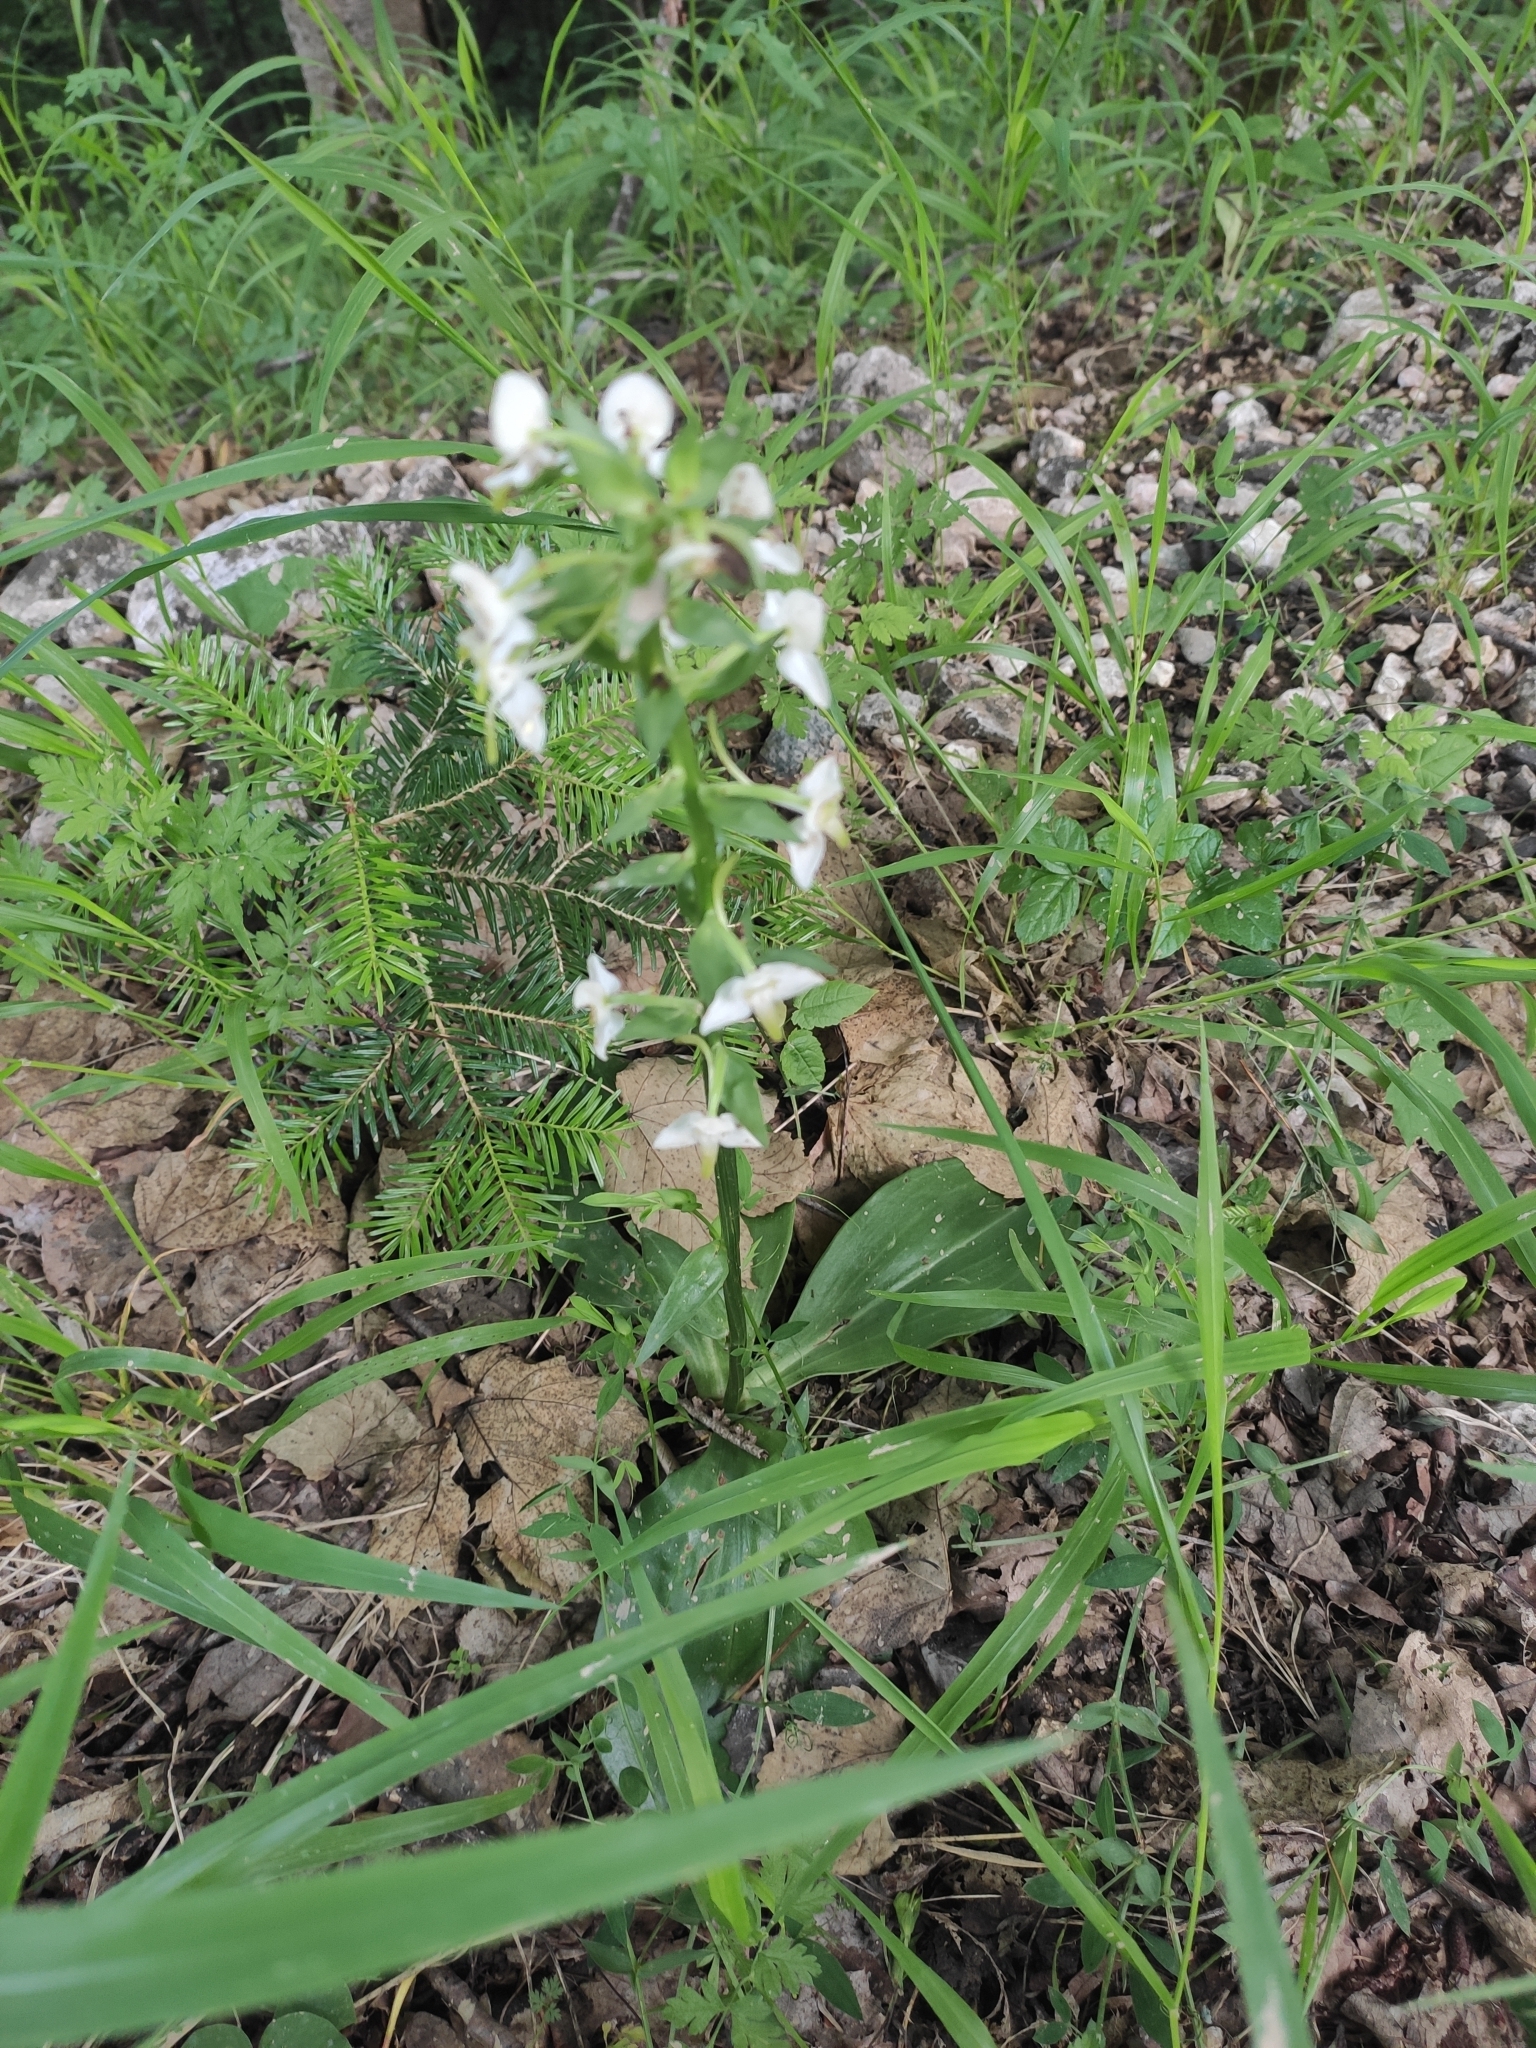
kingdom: Plantae
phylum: Tracheophyta
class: Liliopsida
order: Asparagales
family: Orchidaceae
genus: Platanthera
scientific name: Platanthera chlorantha
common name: Greater butterfly-orchid
